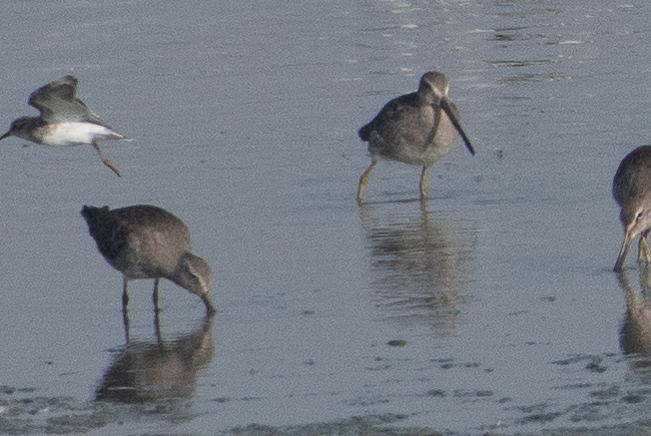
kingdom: Animalia
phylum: Chordata
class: Aves
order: Charadriiformes
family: Scolopacidae
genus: Limnodromus
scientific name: Limnodromus scolopaceus
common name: Long-billed dowitcher
